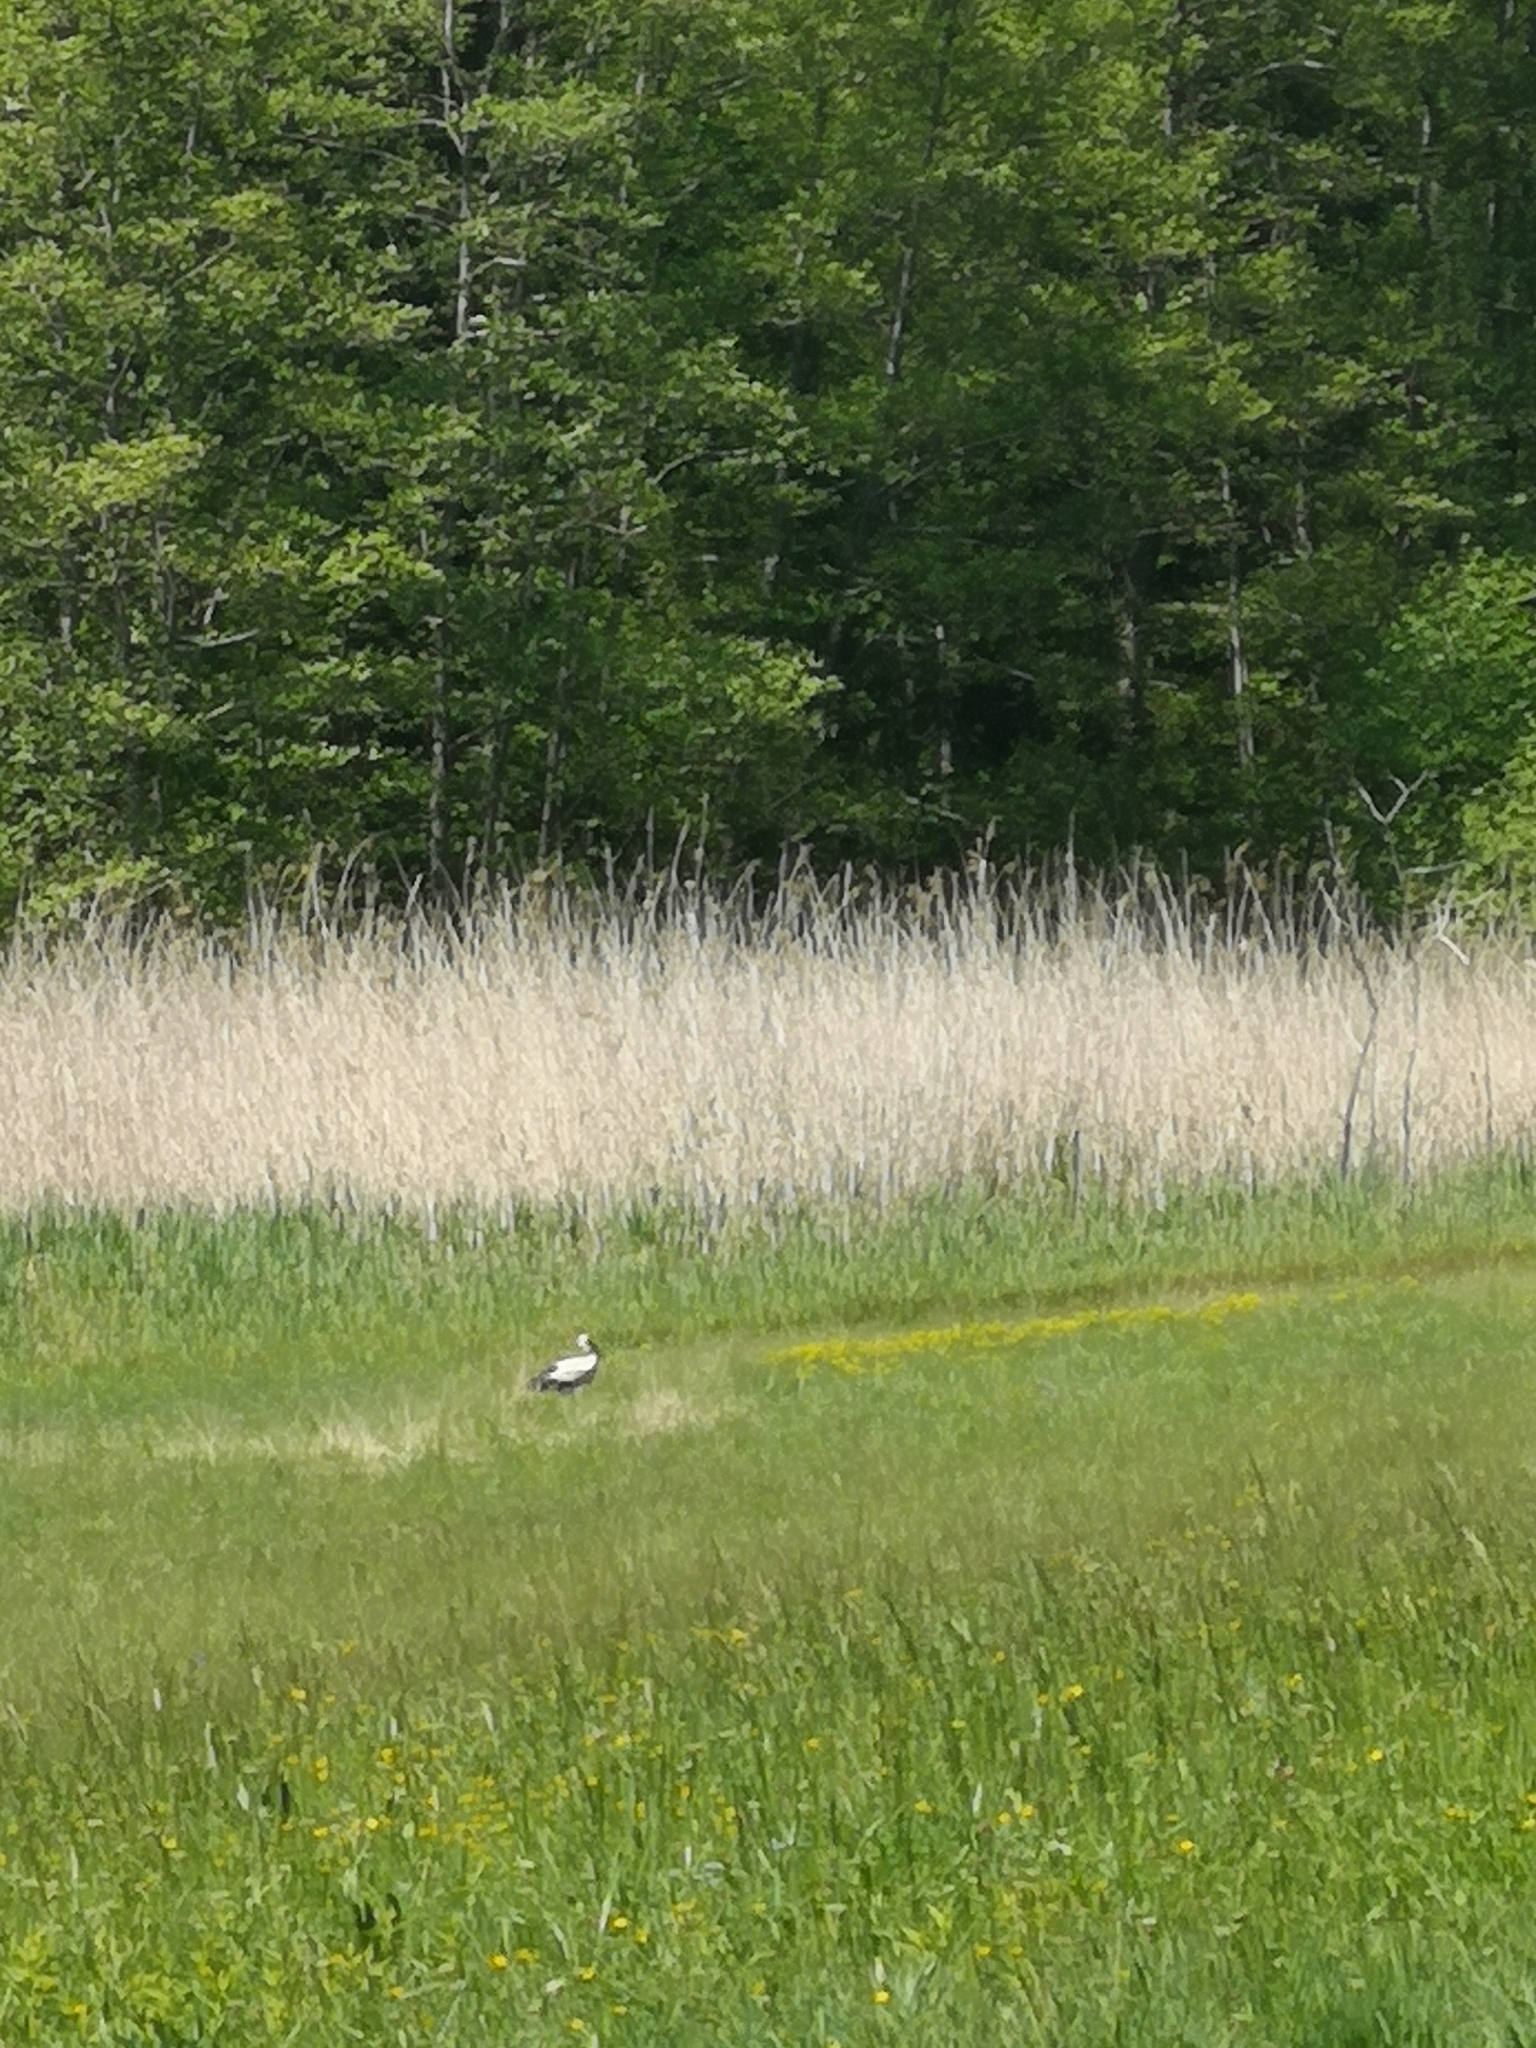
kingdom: Animalia
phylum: Chordata
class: Aves
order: Ciconiiformes
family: Ciconiidae
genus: Ciconia
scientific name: Ciconia ciconia
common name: White stork
